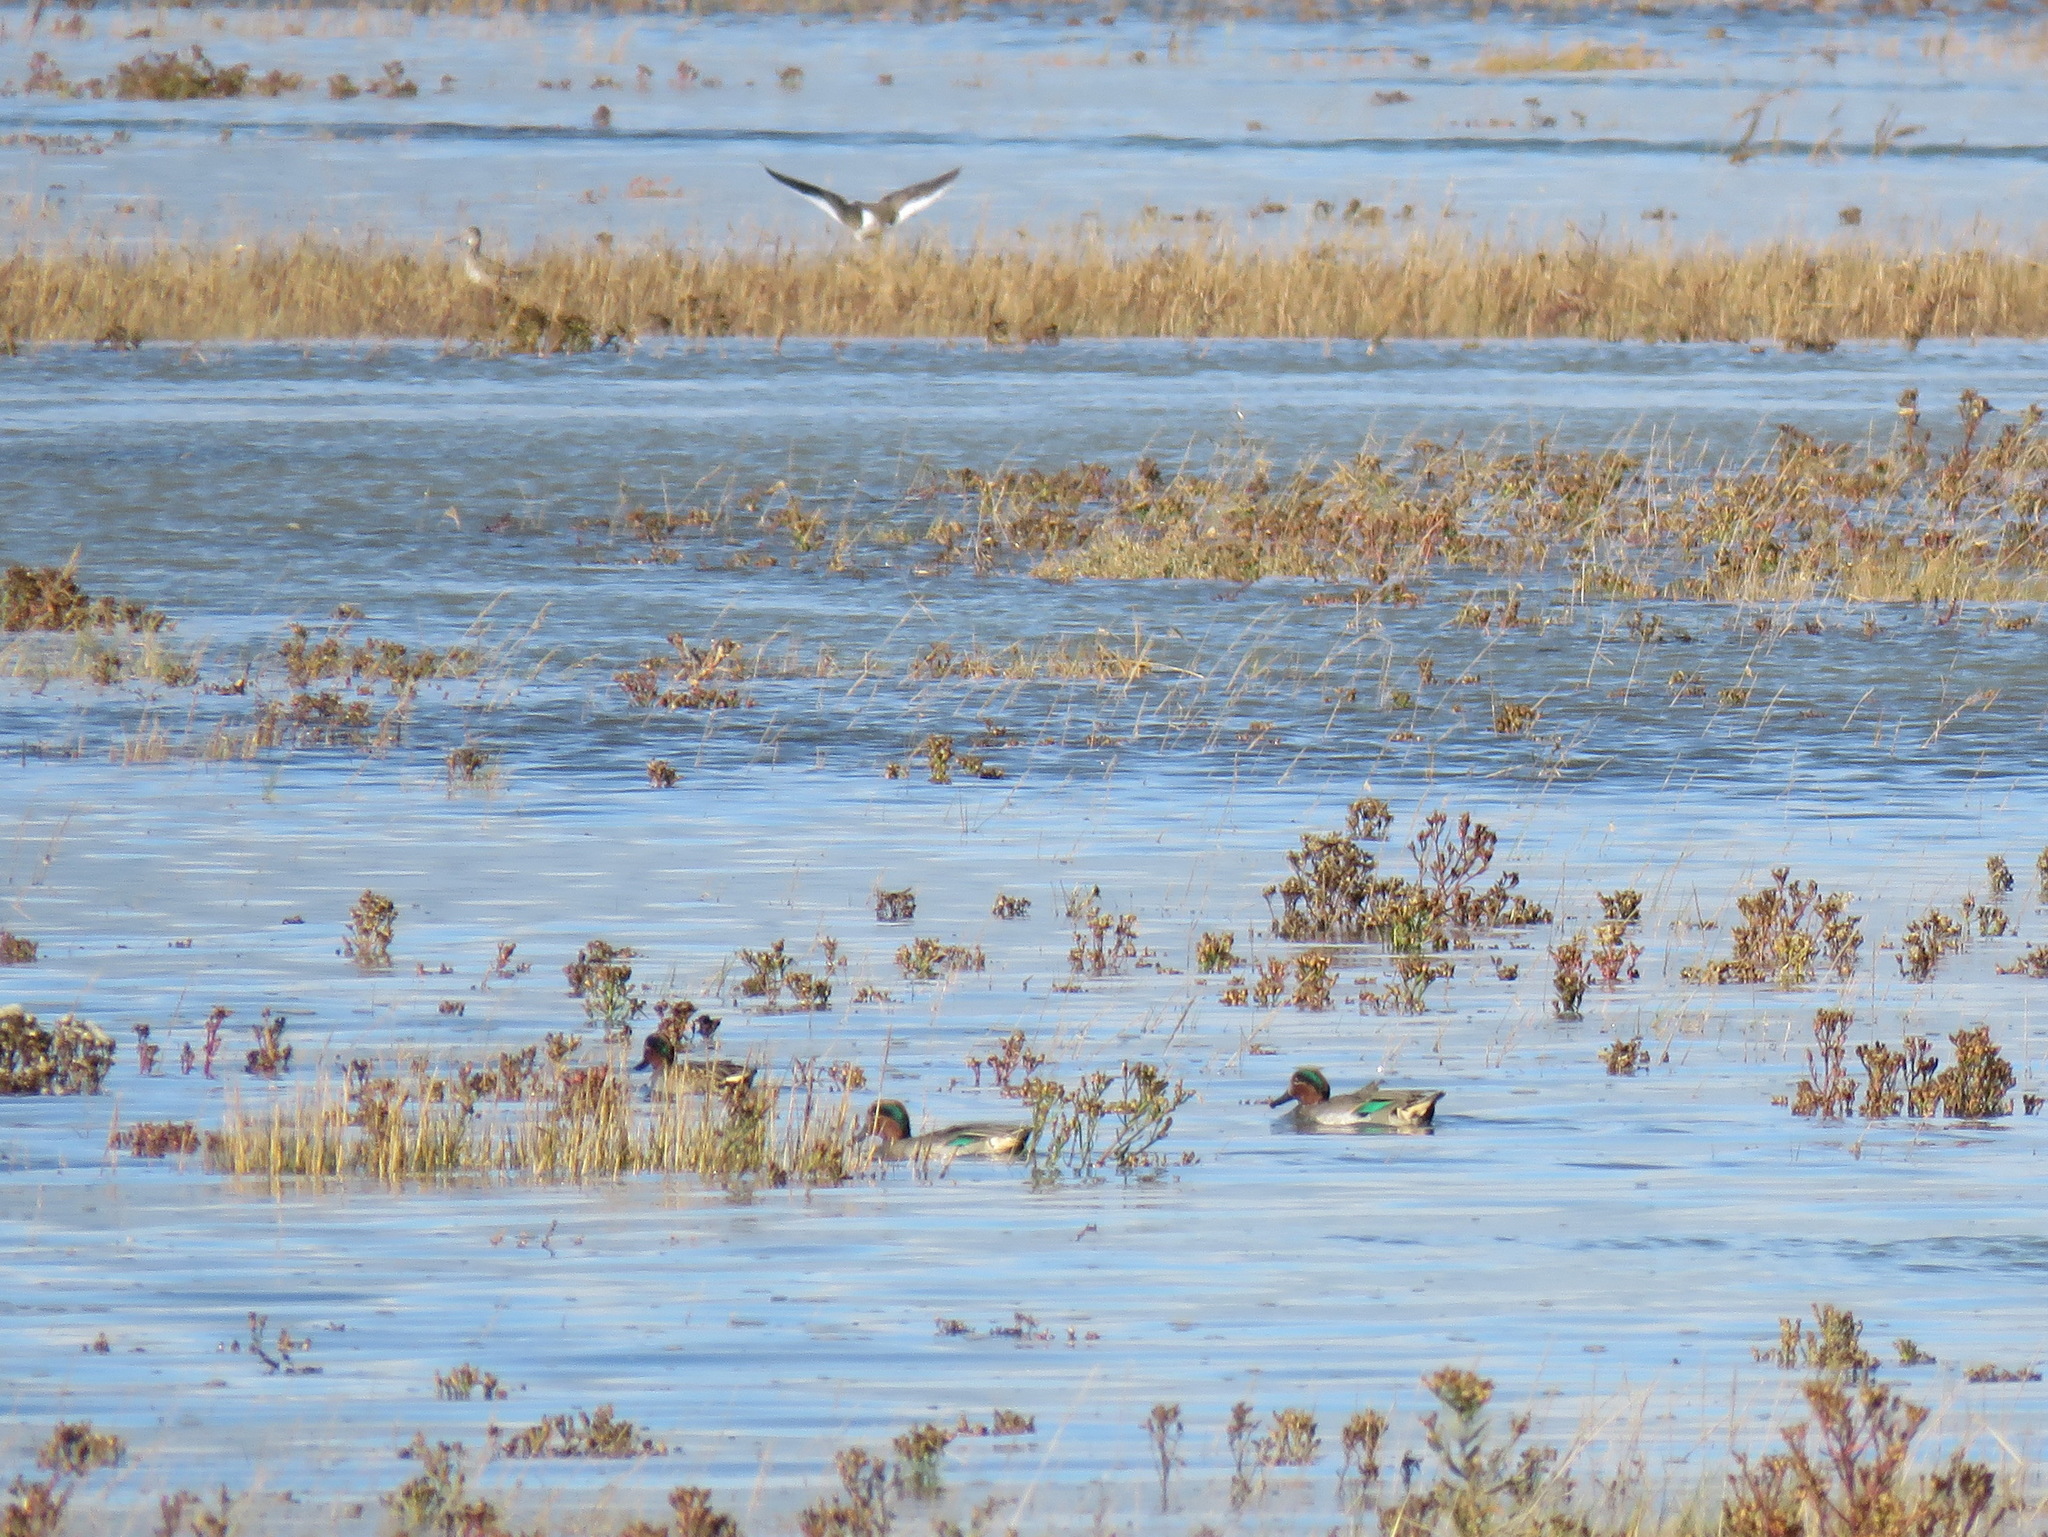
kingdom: Animalia
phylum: Chordata
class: Aves
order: Anseriformes
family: Anatidae
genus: Anas
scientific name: Anas crecca
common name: Eurasian teal
